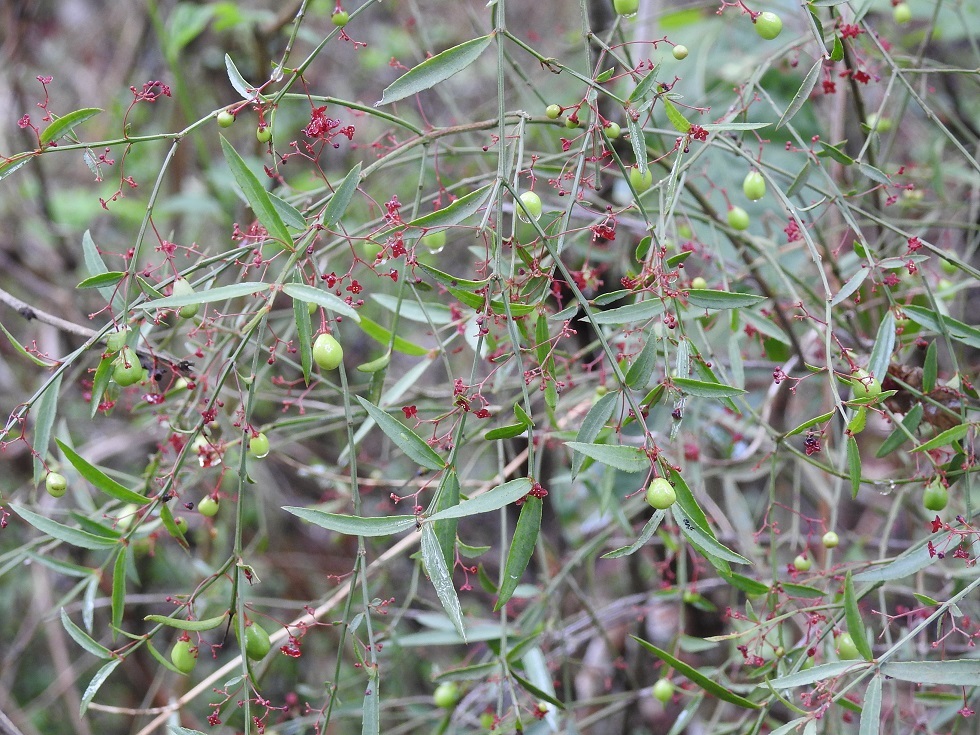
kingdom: Plantae
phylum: Tracheophyta
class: Magnoliopsida
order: Celastrales
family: Celastraceae
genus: Crossopetalum
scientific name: Crossopetalum uragoga
